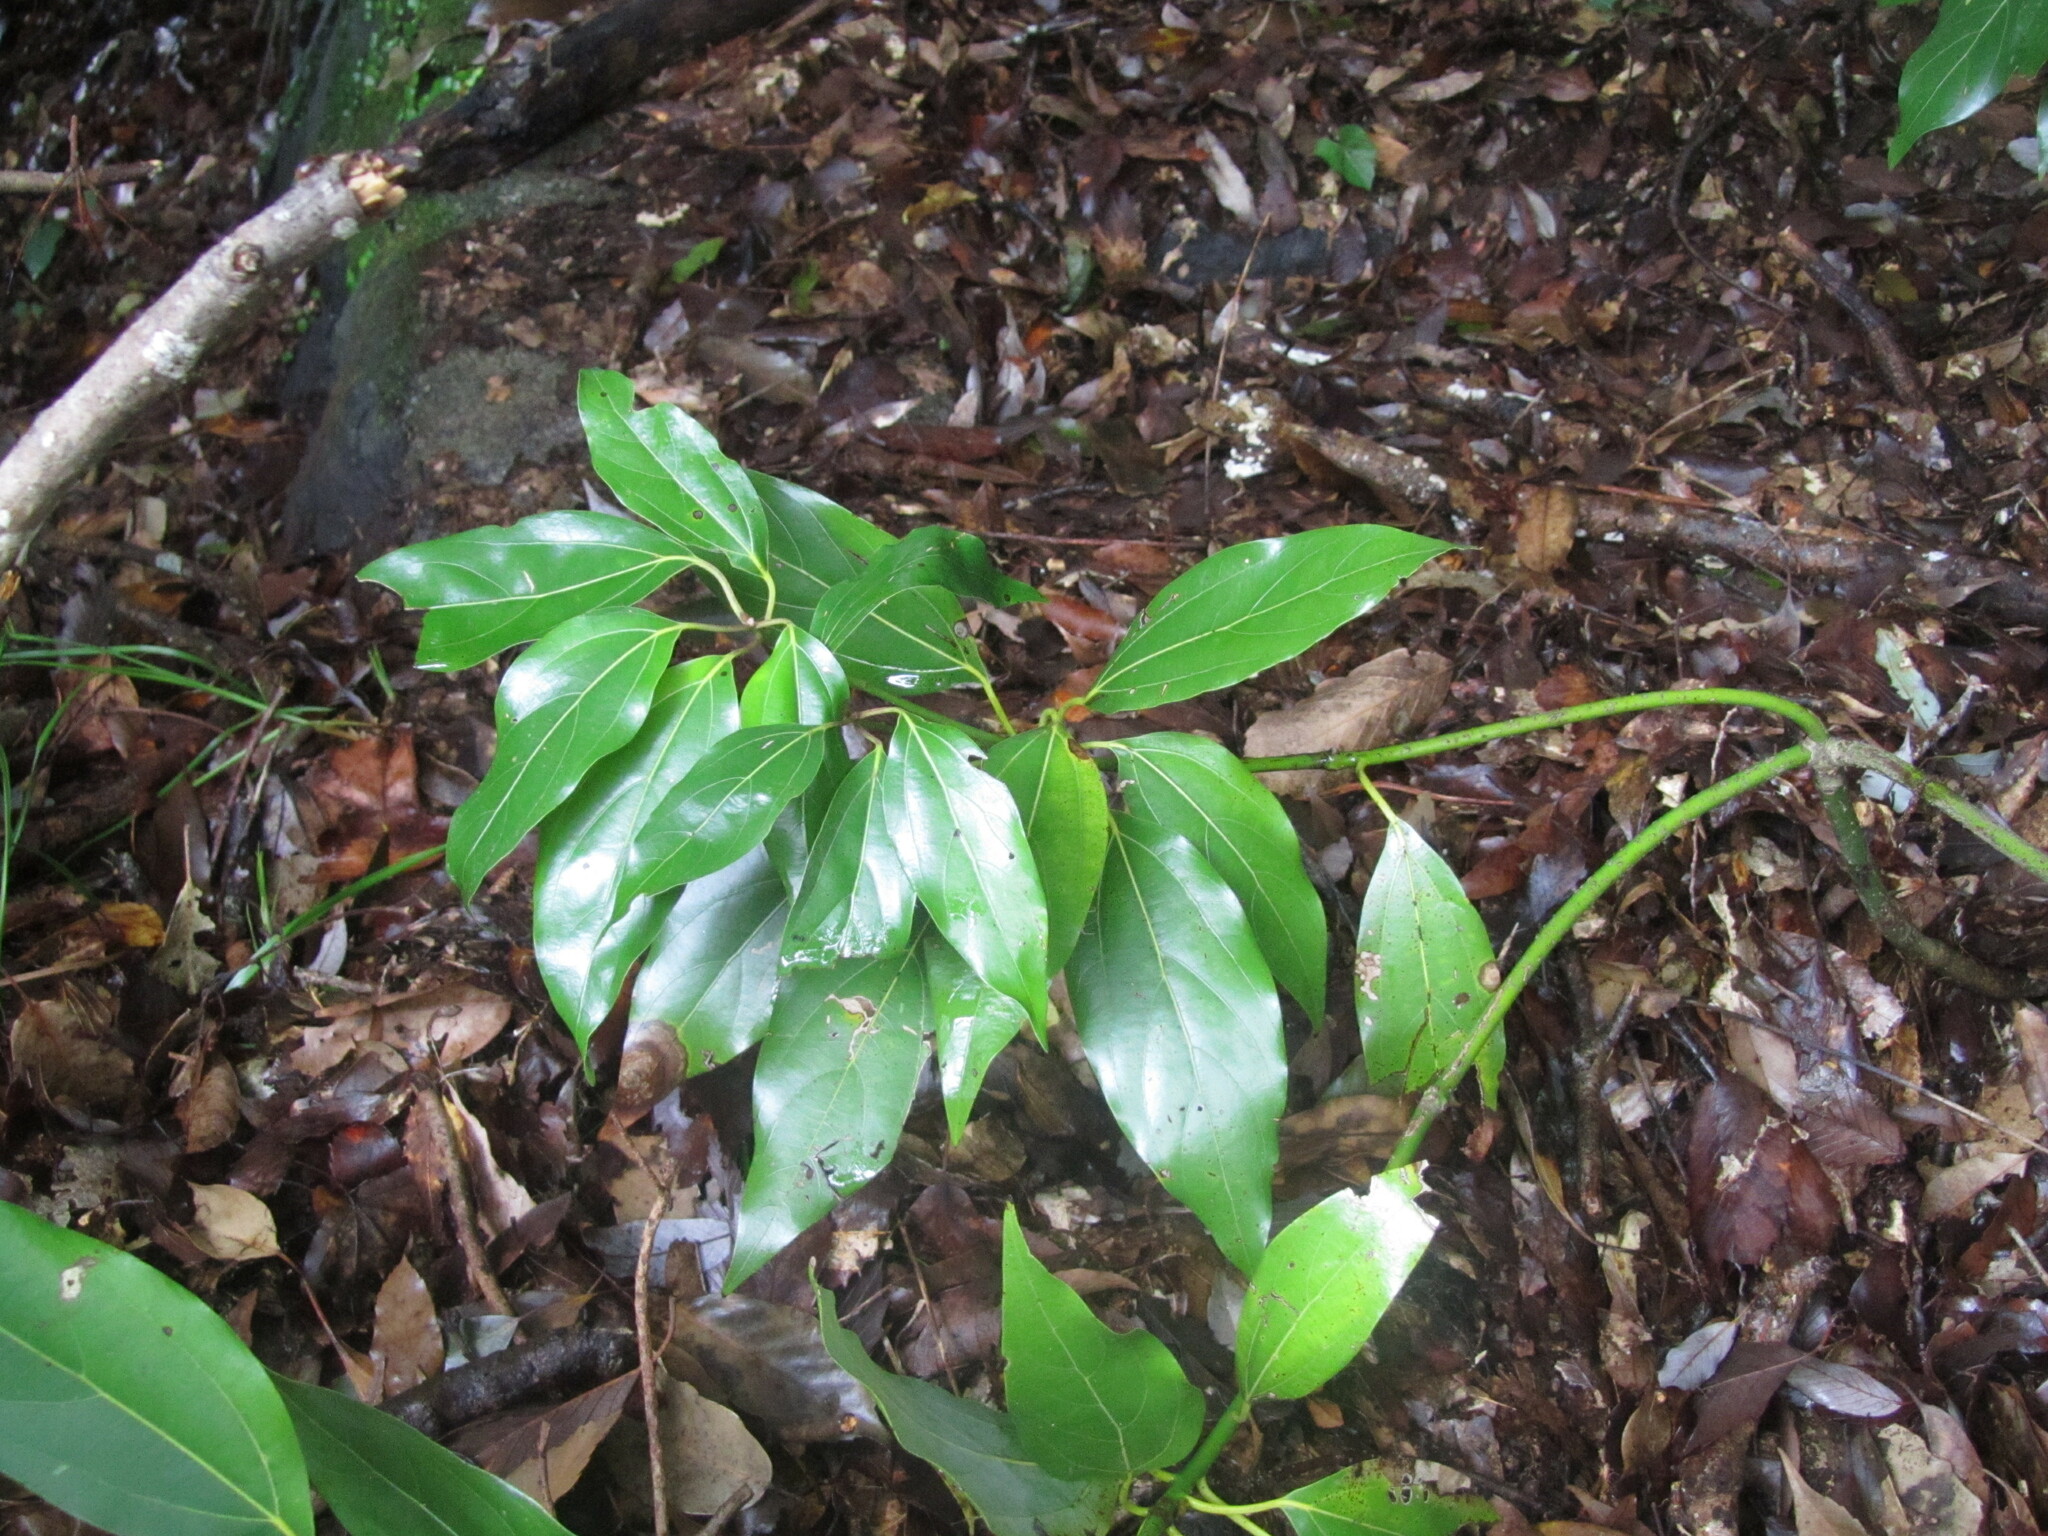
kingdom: Plantae
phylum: Tracheophyta
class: Magnoliopsida
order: Laurales
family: Lauraceae
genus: Neolitsea
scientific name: Neolitsea sericea
